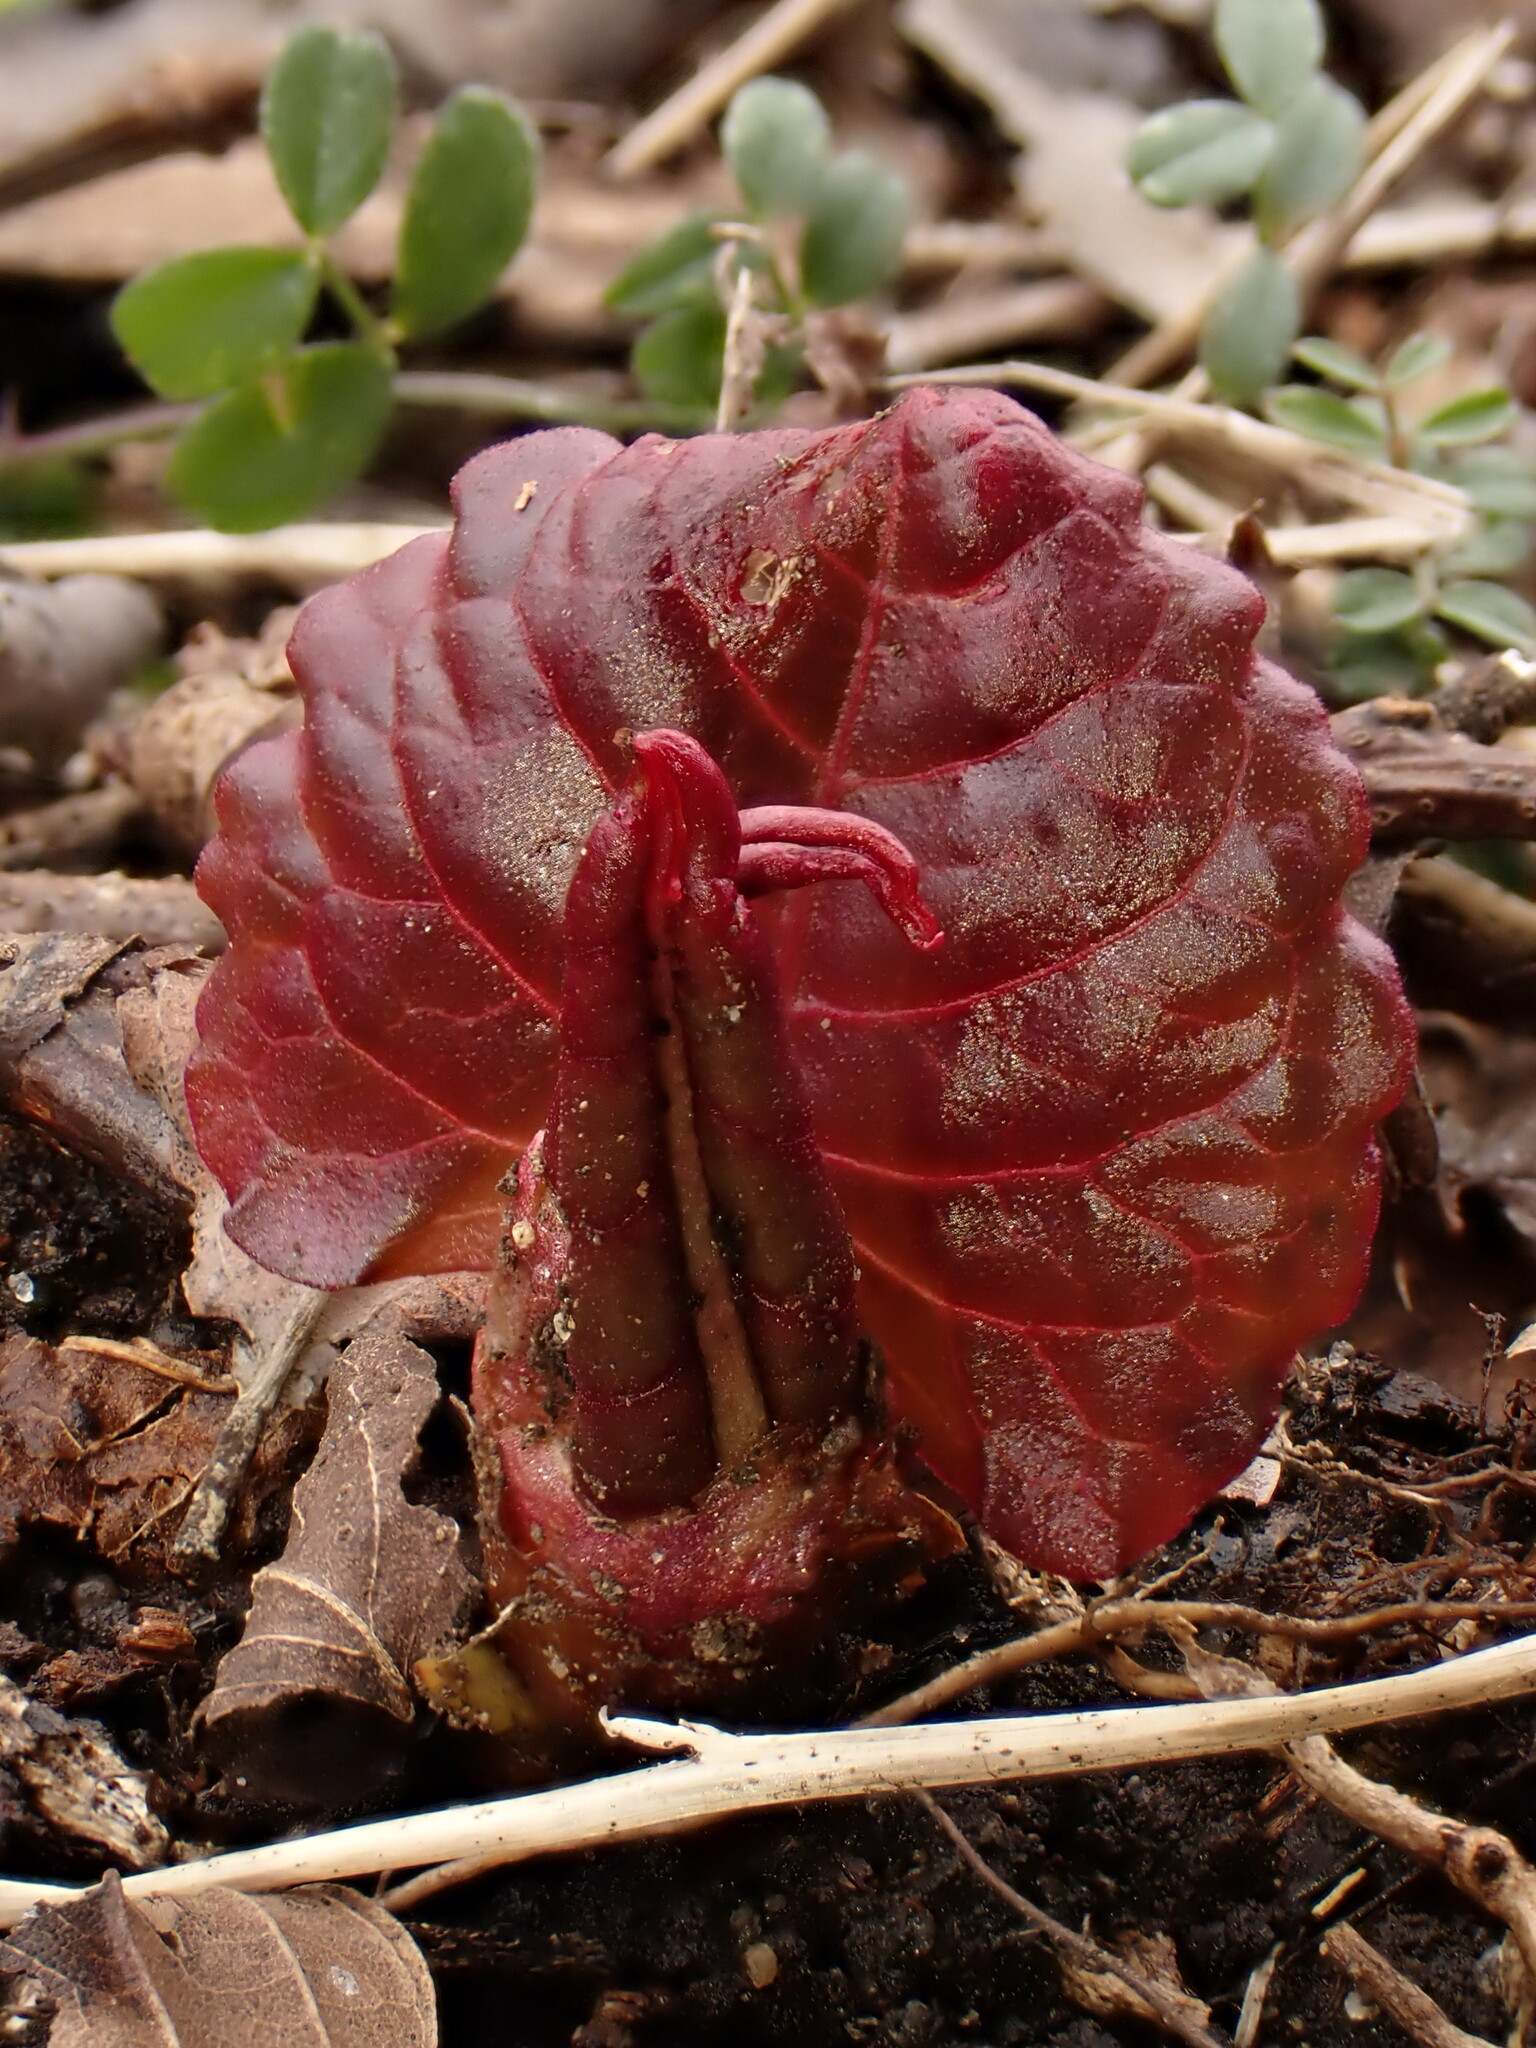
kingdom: Plantae
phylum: Tracheophyta
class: Magnoliopsida
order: Caryophyllales
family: Polygonaceae
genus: Reynoutria
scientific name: Reynoutria japonica
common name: Japanese knotweed
